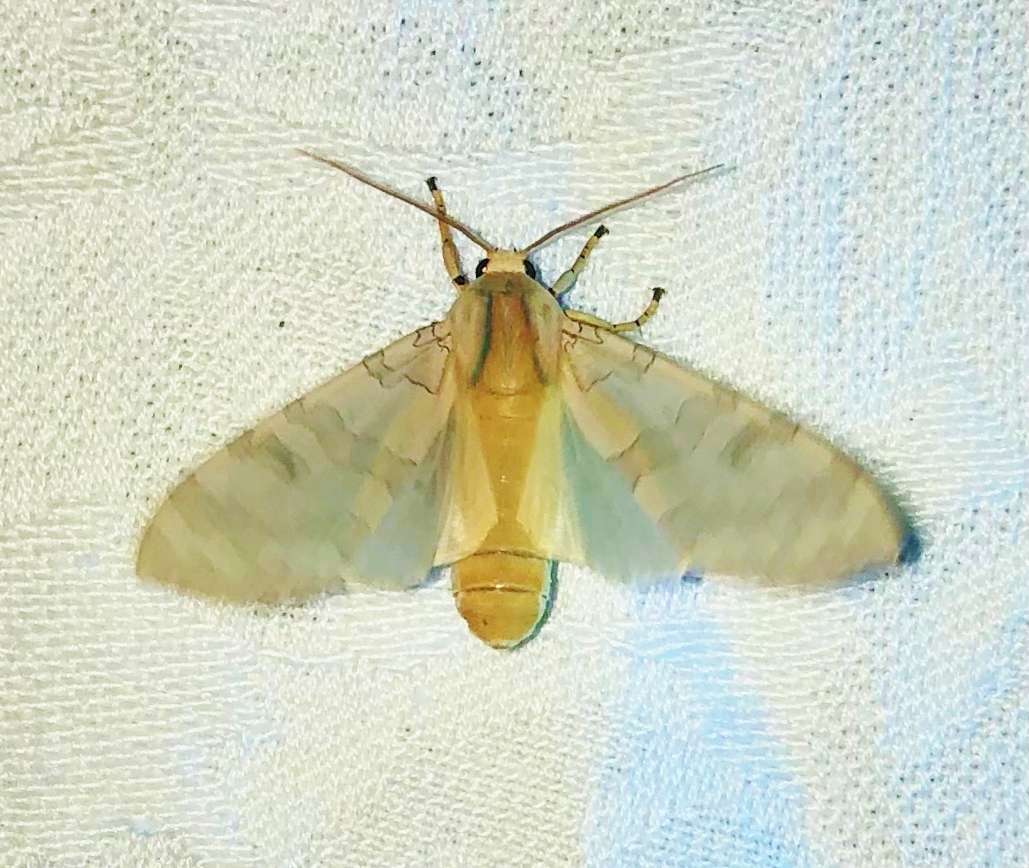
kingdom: Animalia
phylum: Arthropoda
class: Insecta
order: Lepidoptera
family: Erebidae
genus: Halysidota
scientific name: Halysidota
